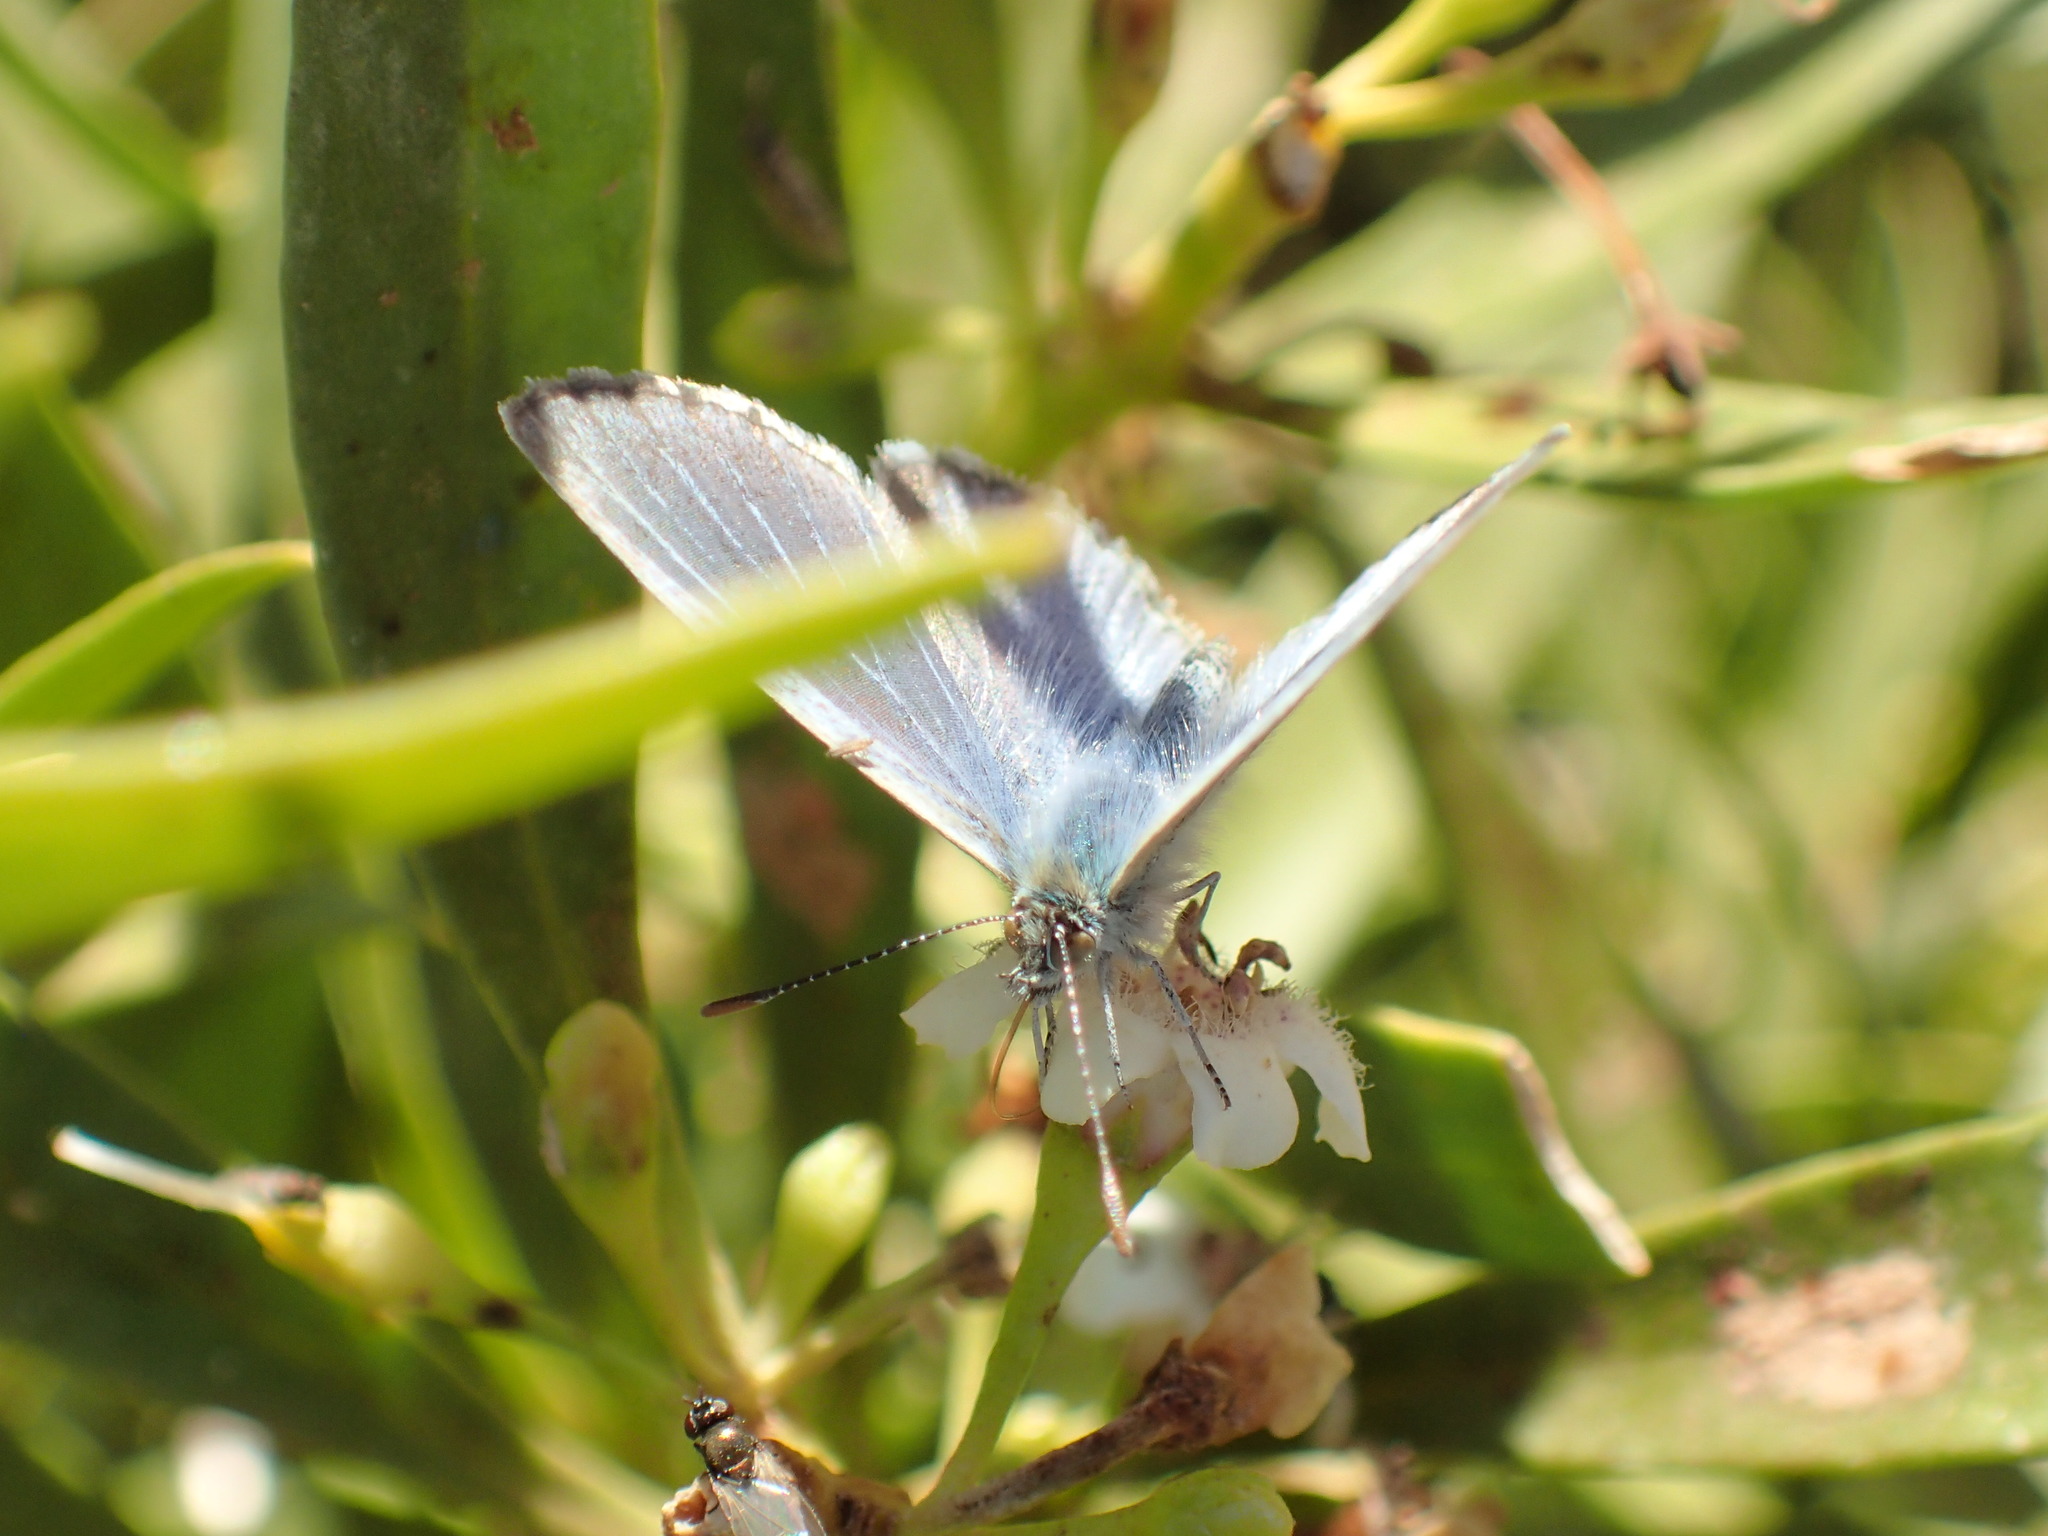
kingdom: Animalia
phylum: Arthropoda
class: Insecta
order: Lepidoptera
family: Lycaenidae
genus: Nacaduba
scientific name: Nacaduba biocellata
